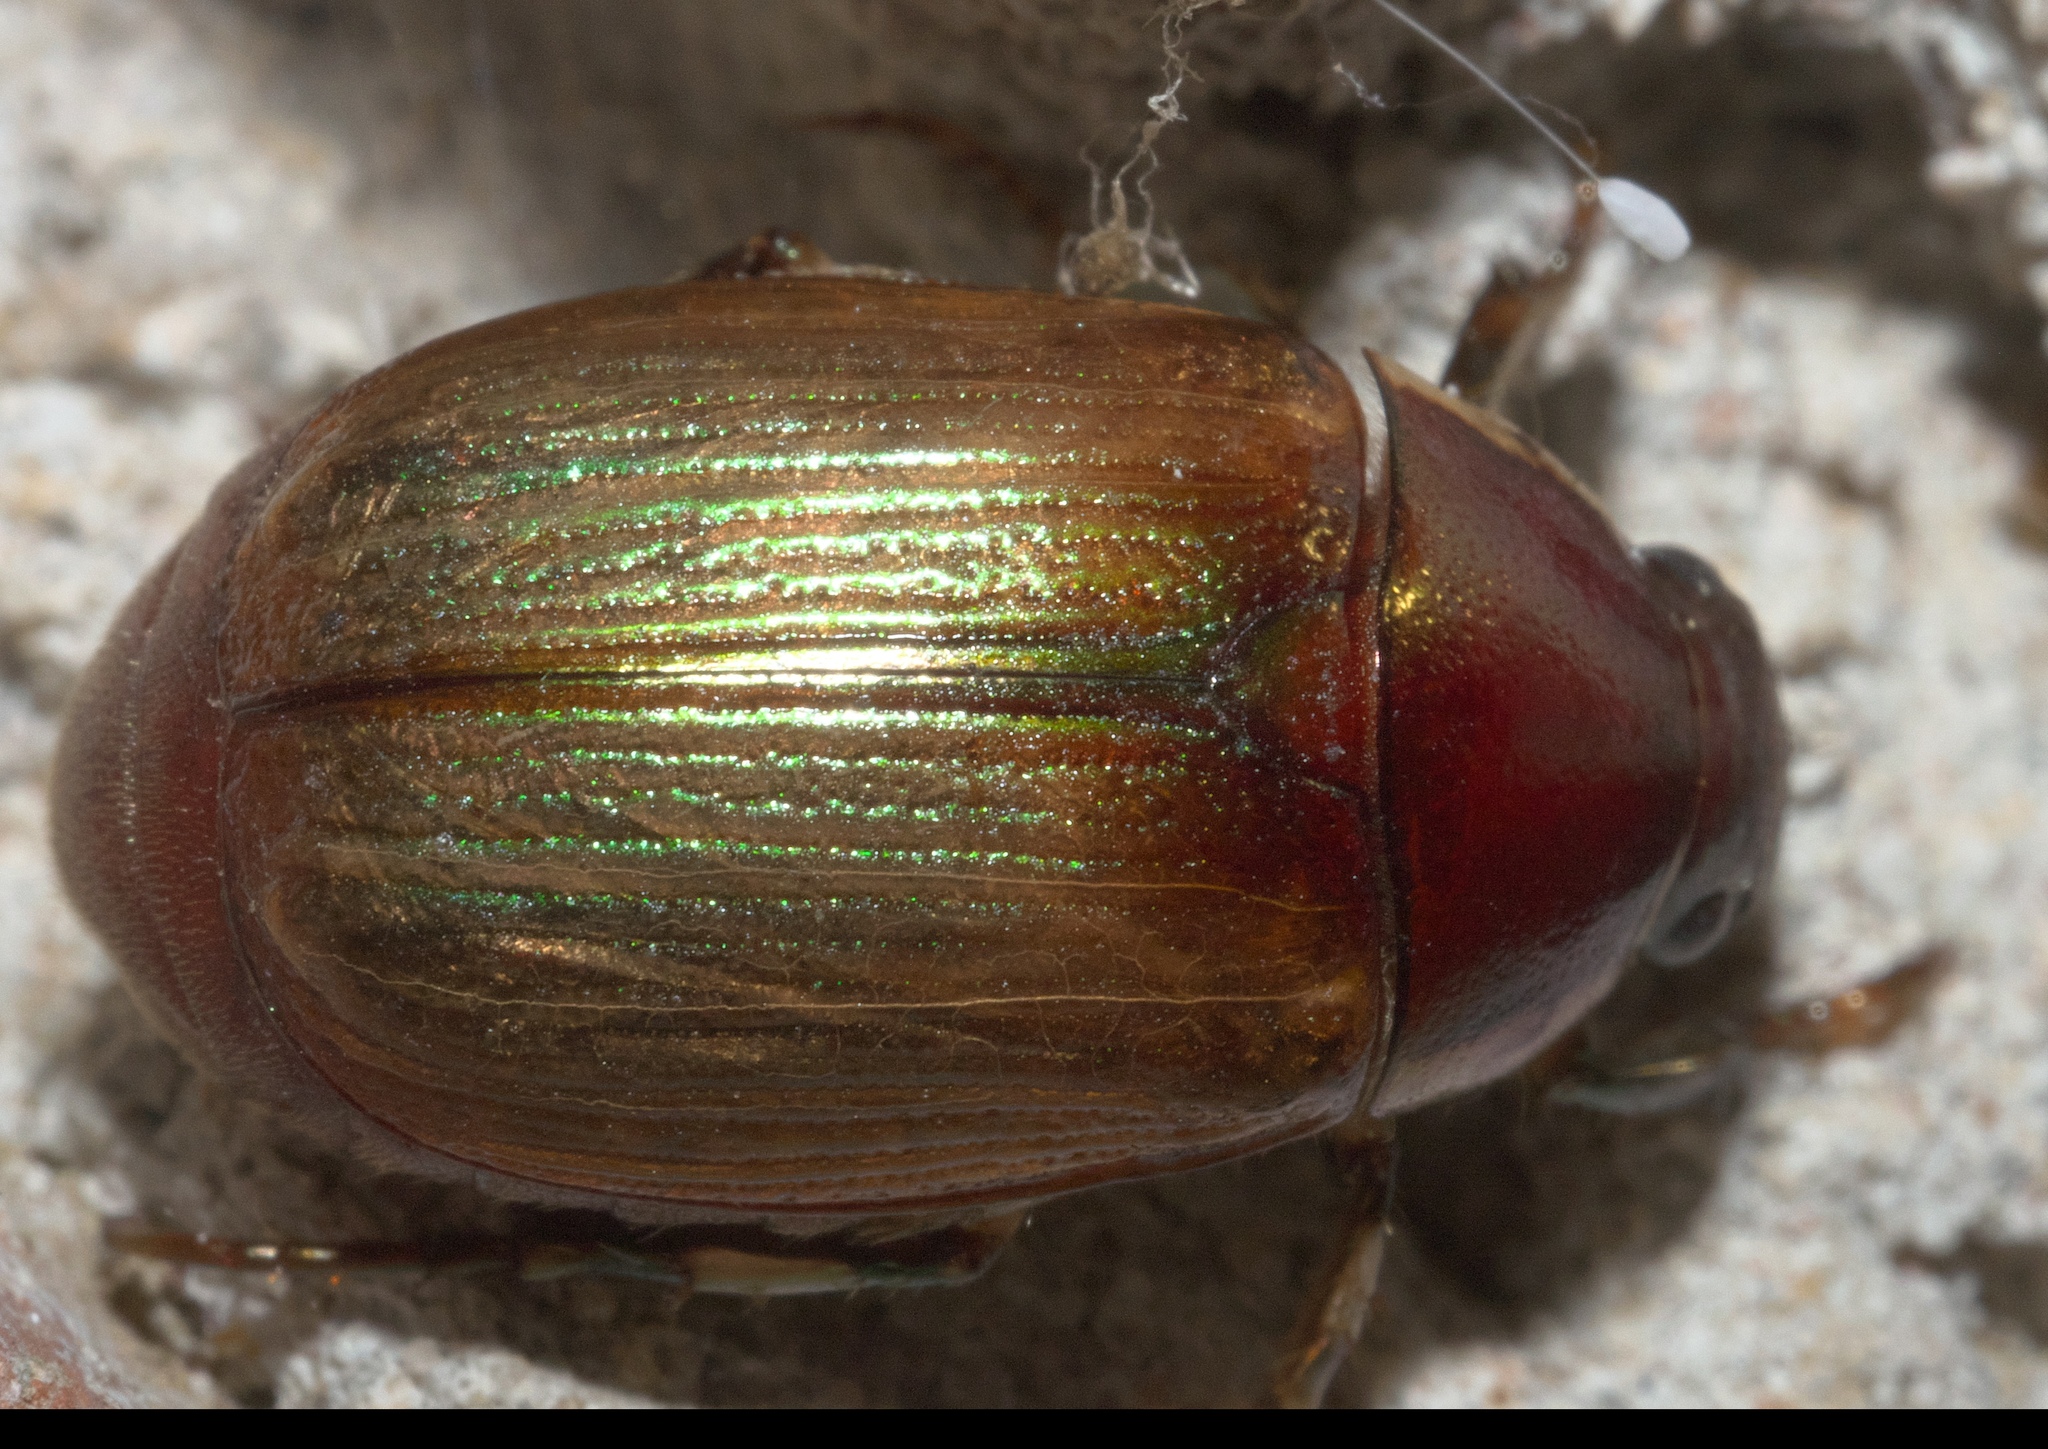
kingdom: Animalia
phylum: Arthropoda
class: Insecta
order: Coleoptera
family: Scarabaeidae
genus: Callistethus
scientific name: Callistethus marginatus
